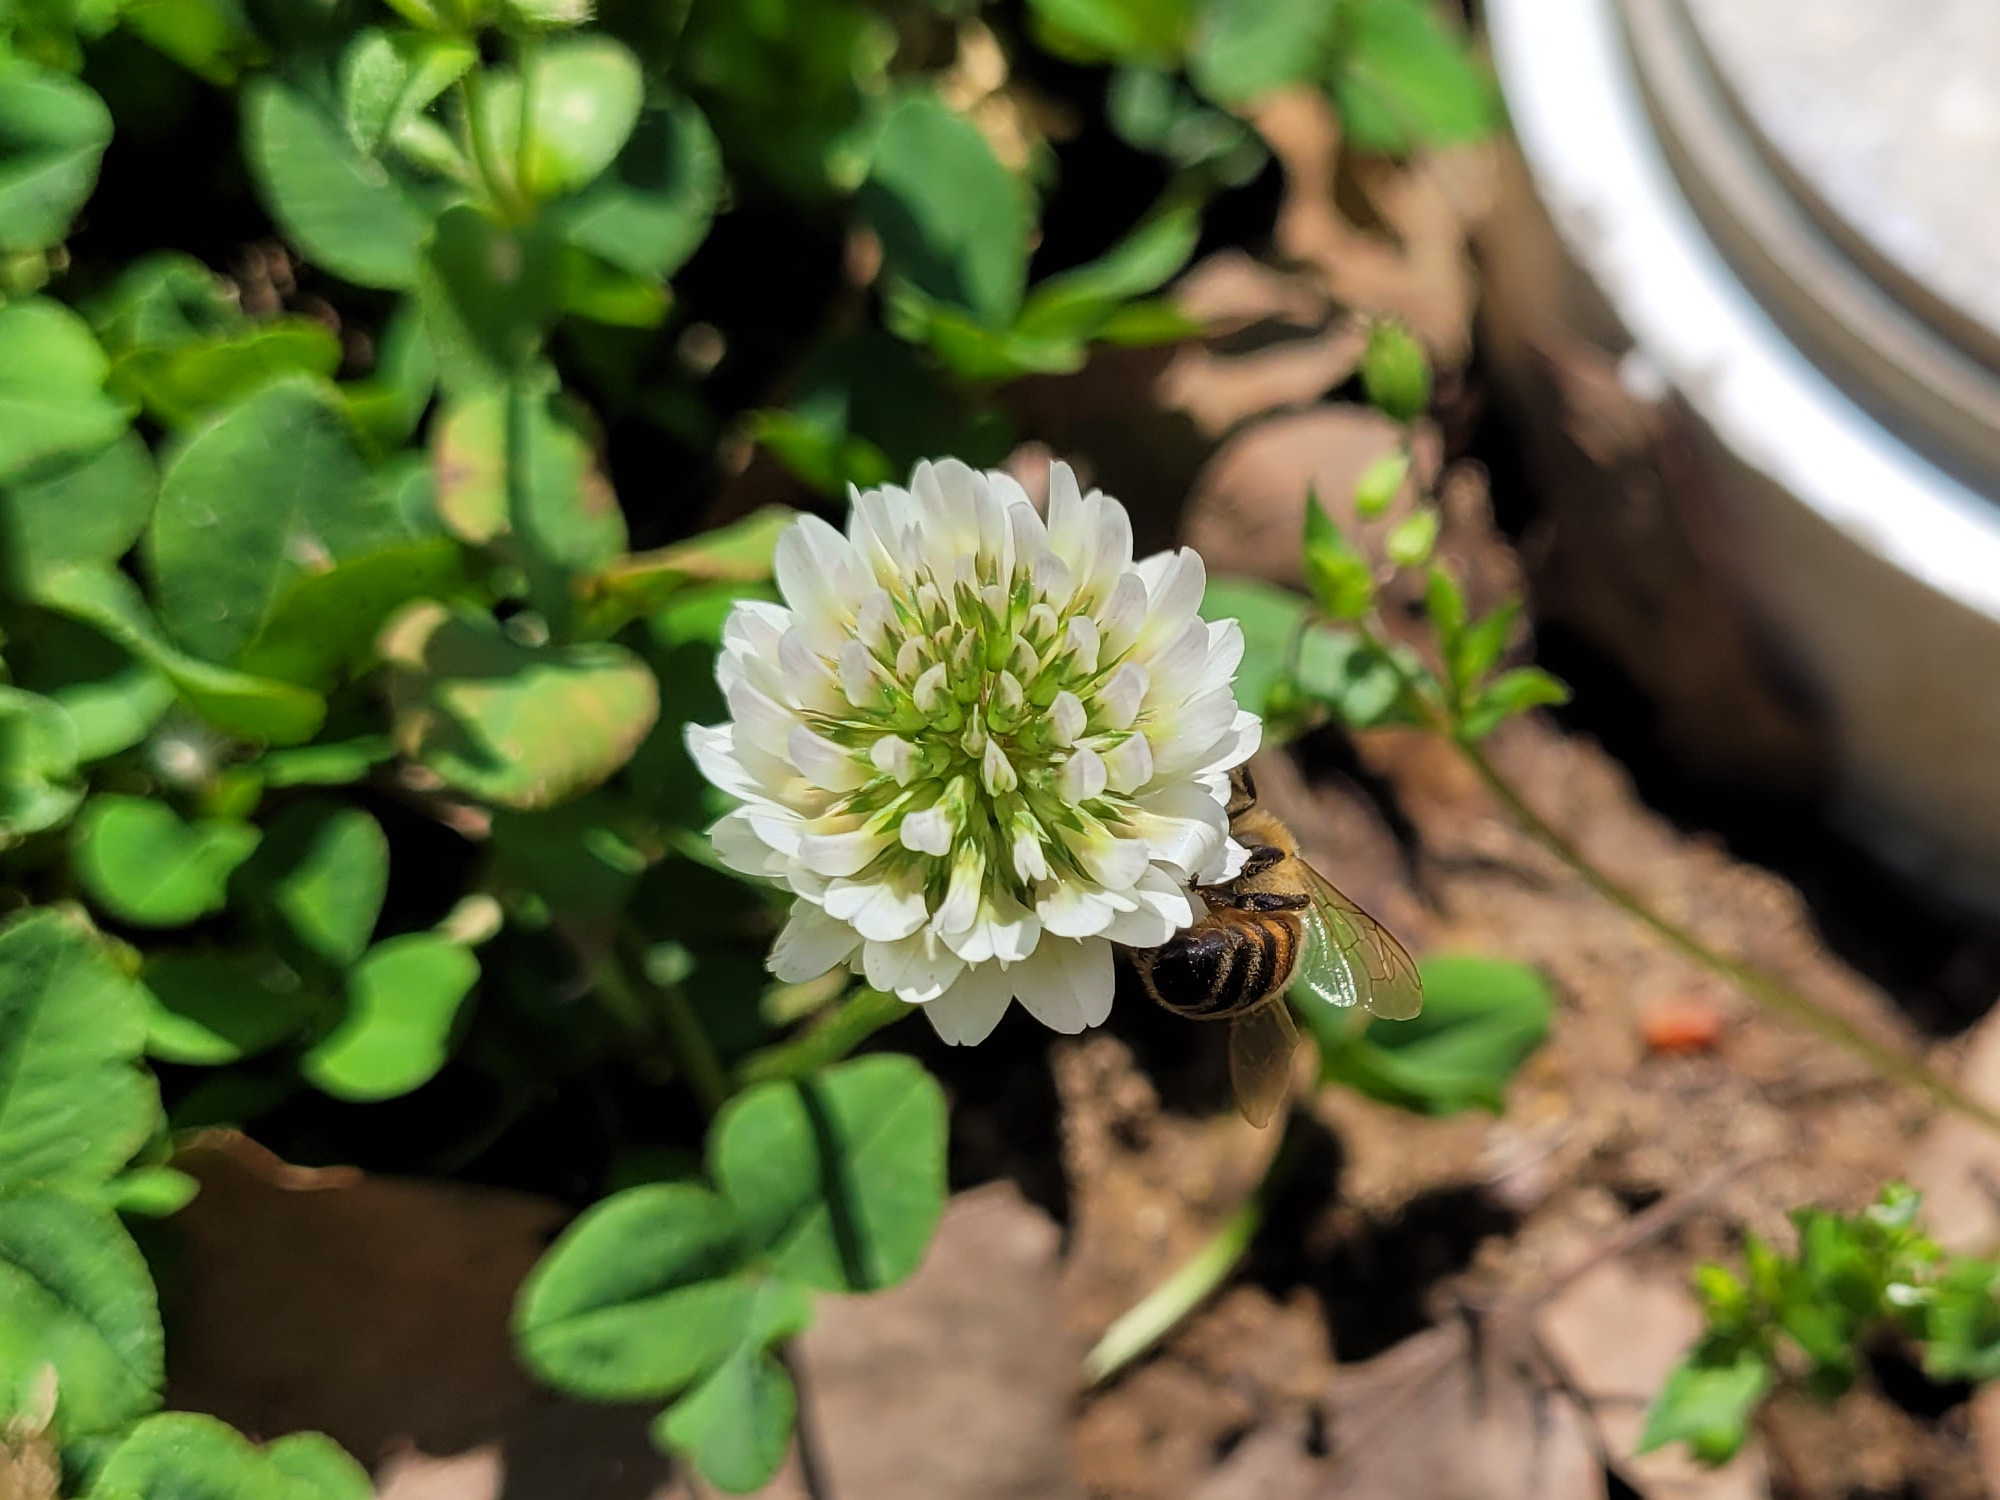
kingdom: Animalia
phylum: Arthropoda
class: Insecta
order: Hymenoptera
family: Apidae
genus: Apis
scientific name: Apis mellifera
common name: Honey bee
